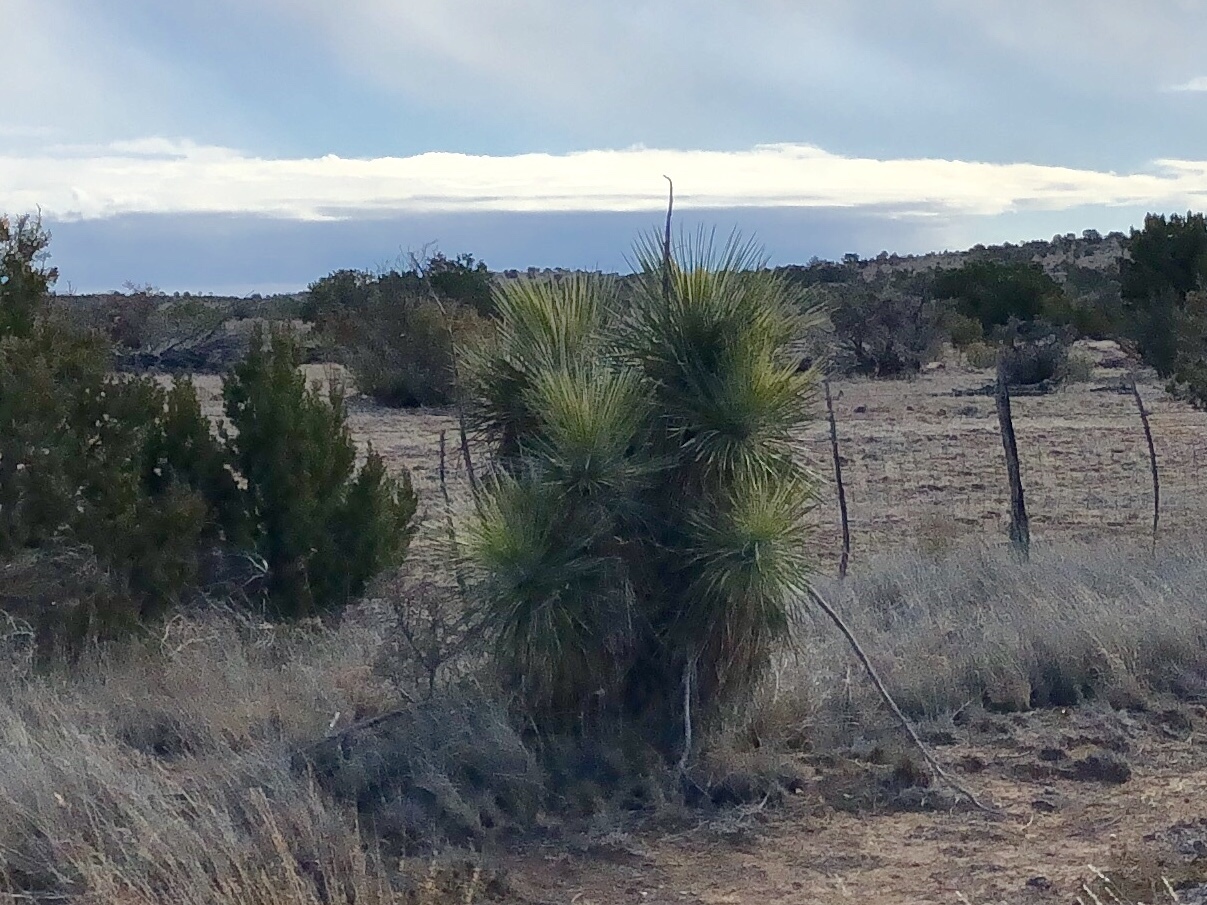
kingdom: Plantae
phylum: Tracheophyta
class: Liliopsida
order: Asparagales
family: Asparagaceae
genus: Yucca
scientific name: Yucca elata
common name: Palmella
